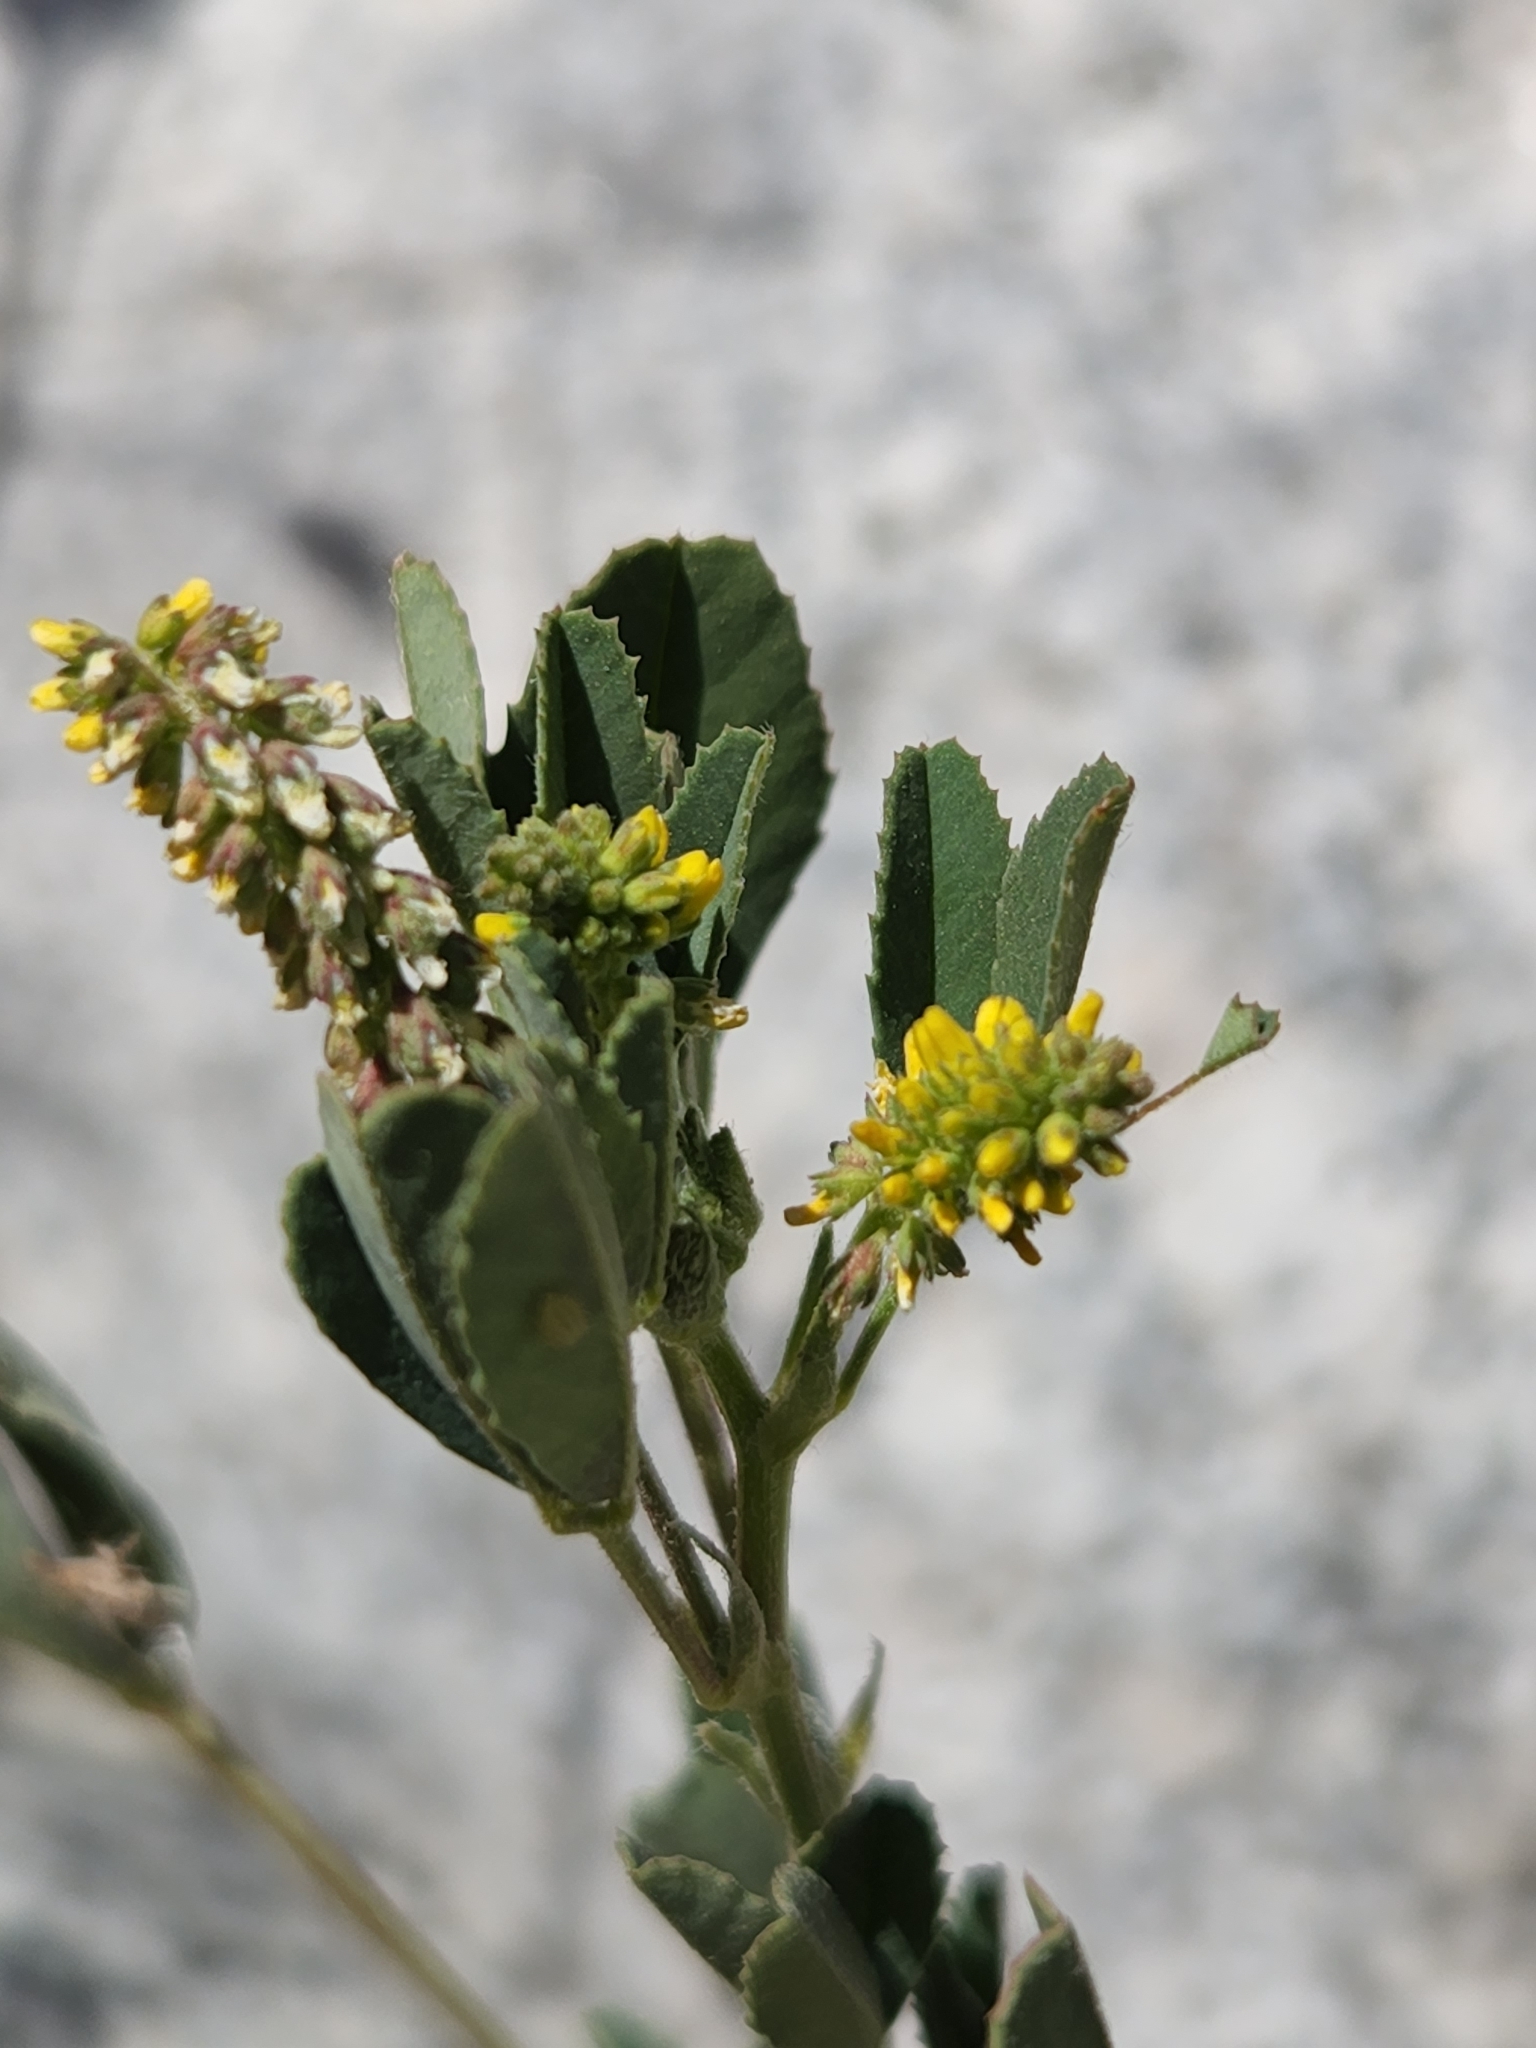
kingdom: Plantae
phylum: Tracheophyta
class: Magnoliopsida
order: Fabales
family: Fabaceae
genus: Melilotus
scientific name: Melilotus indicus
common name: Small melilot
